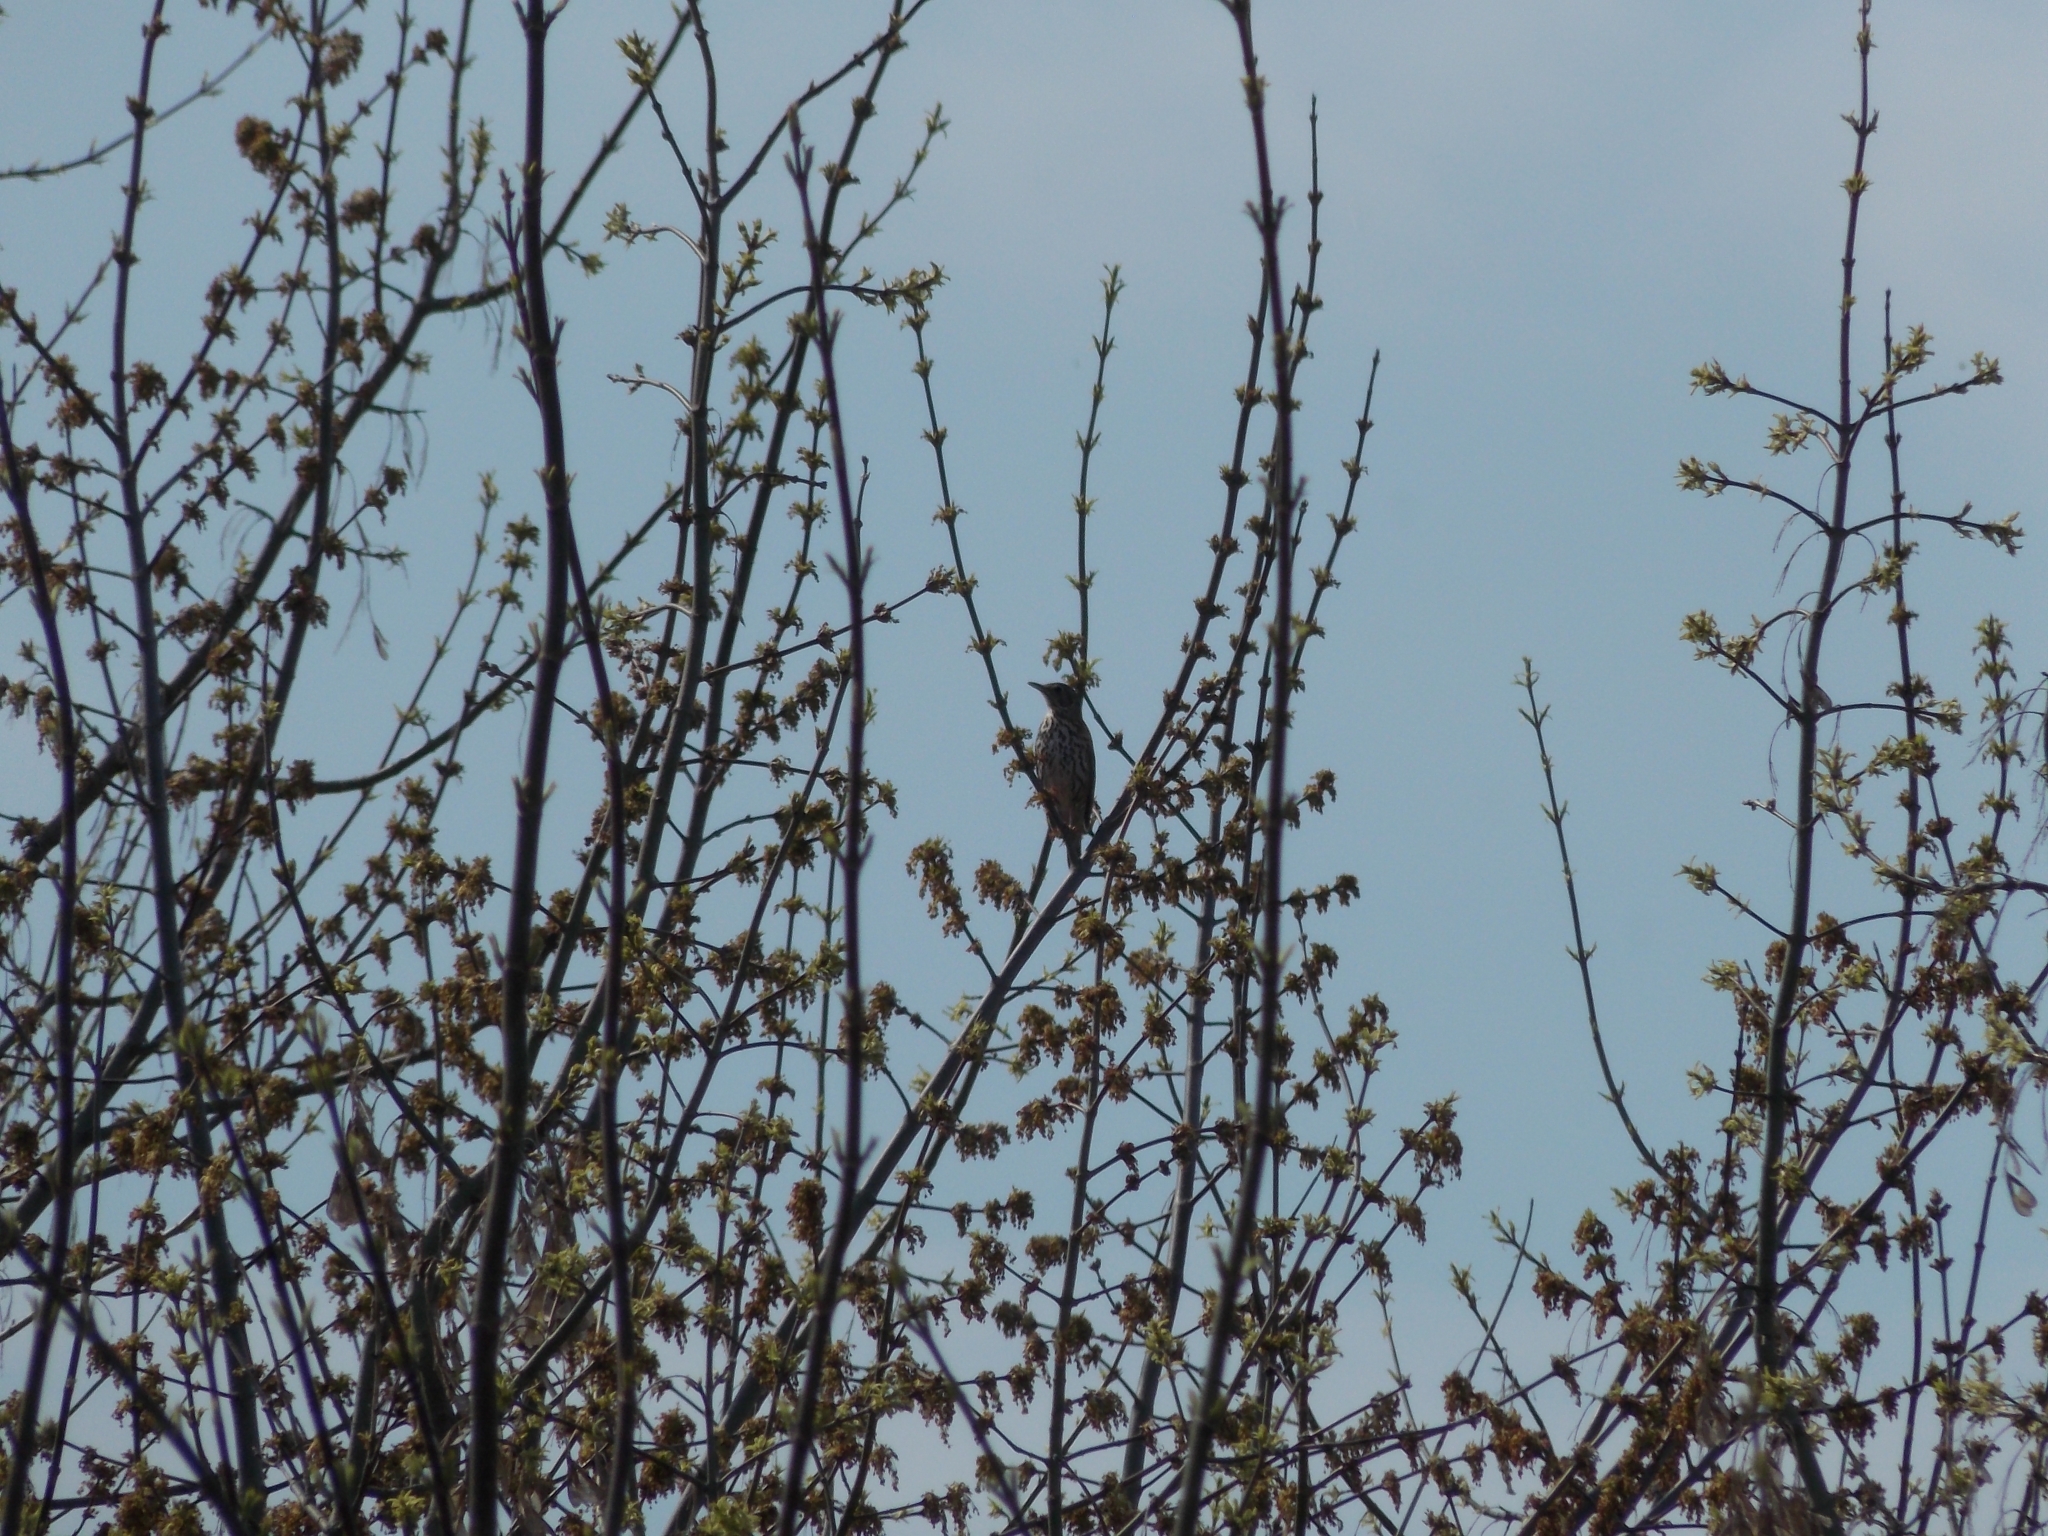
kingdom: Animalia
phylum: Chordata
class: Aves
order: Passeriformes
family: Turdidae
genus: Turdus
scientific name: Turdus philomelos
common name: Song thrush
